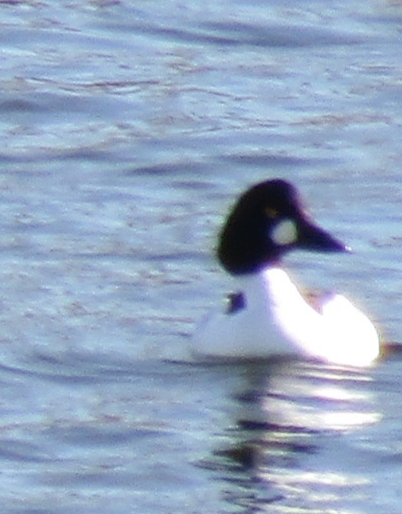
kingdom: Animalia
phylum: Chordata
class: Aves
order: Anseriformes
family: Anatidae
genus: Bucephala
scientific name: Bucephala clangula
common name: Common goldeneye
